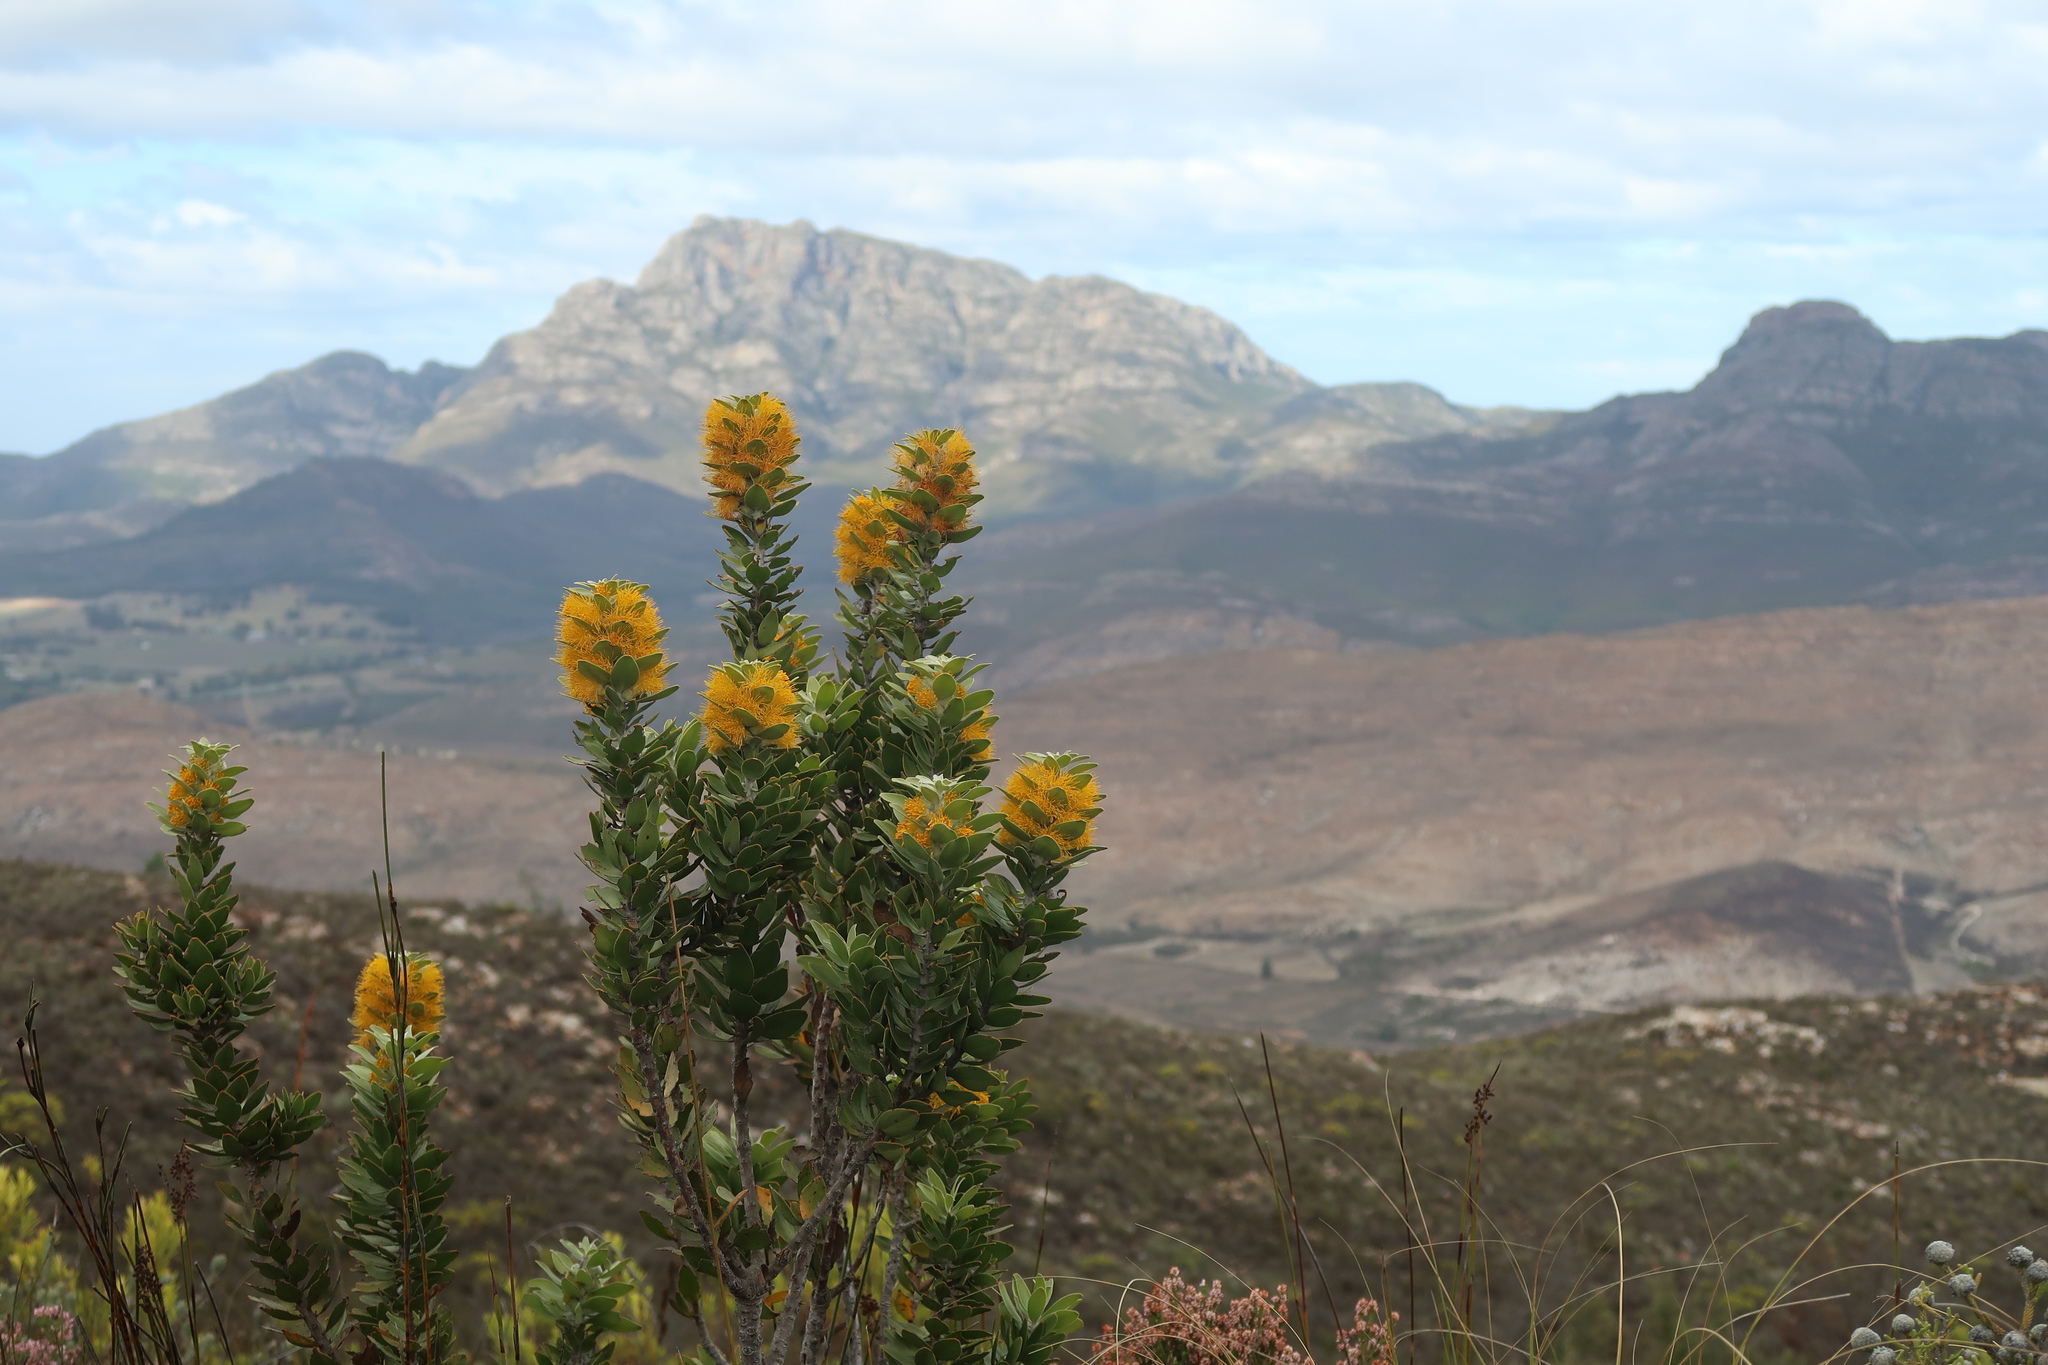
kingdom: Plantae
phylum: Tracheophyta
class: Magnoliopsida
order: Proteales
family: Proteaceae
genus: Mimetes
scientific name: Mimetes chrysanthus
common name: Golden pagoda
